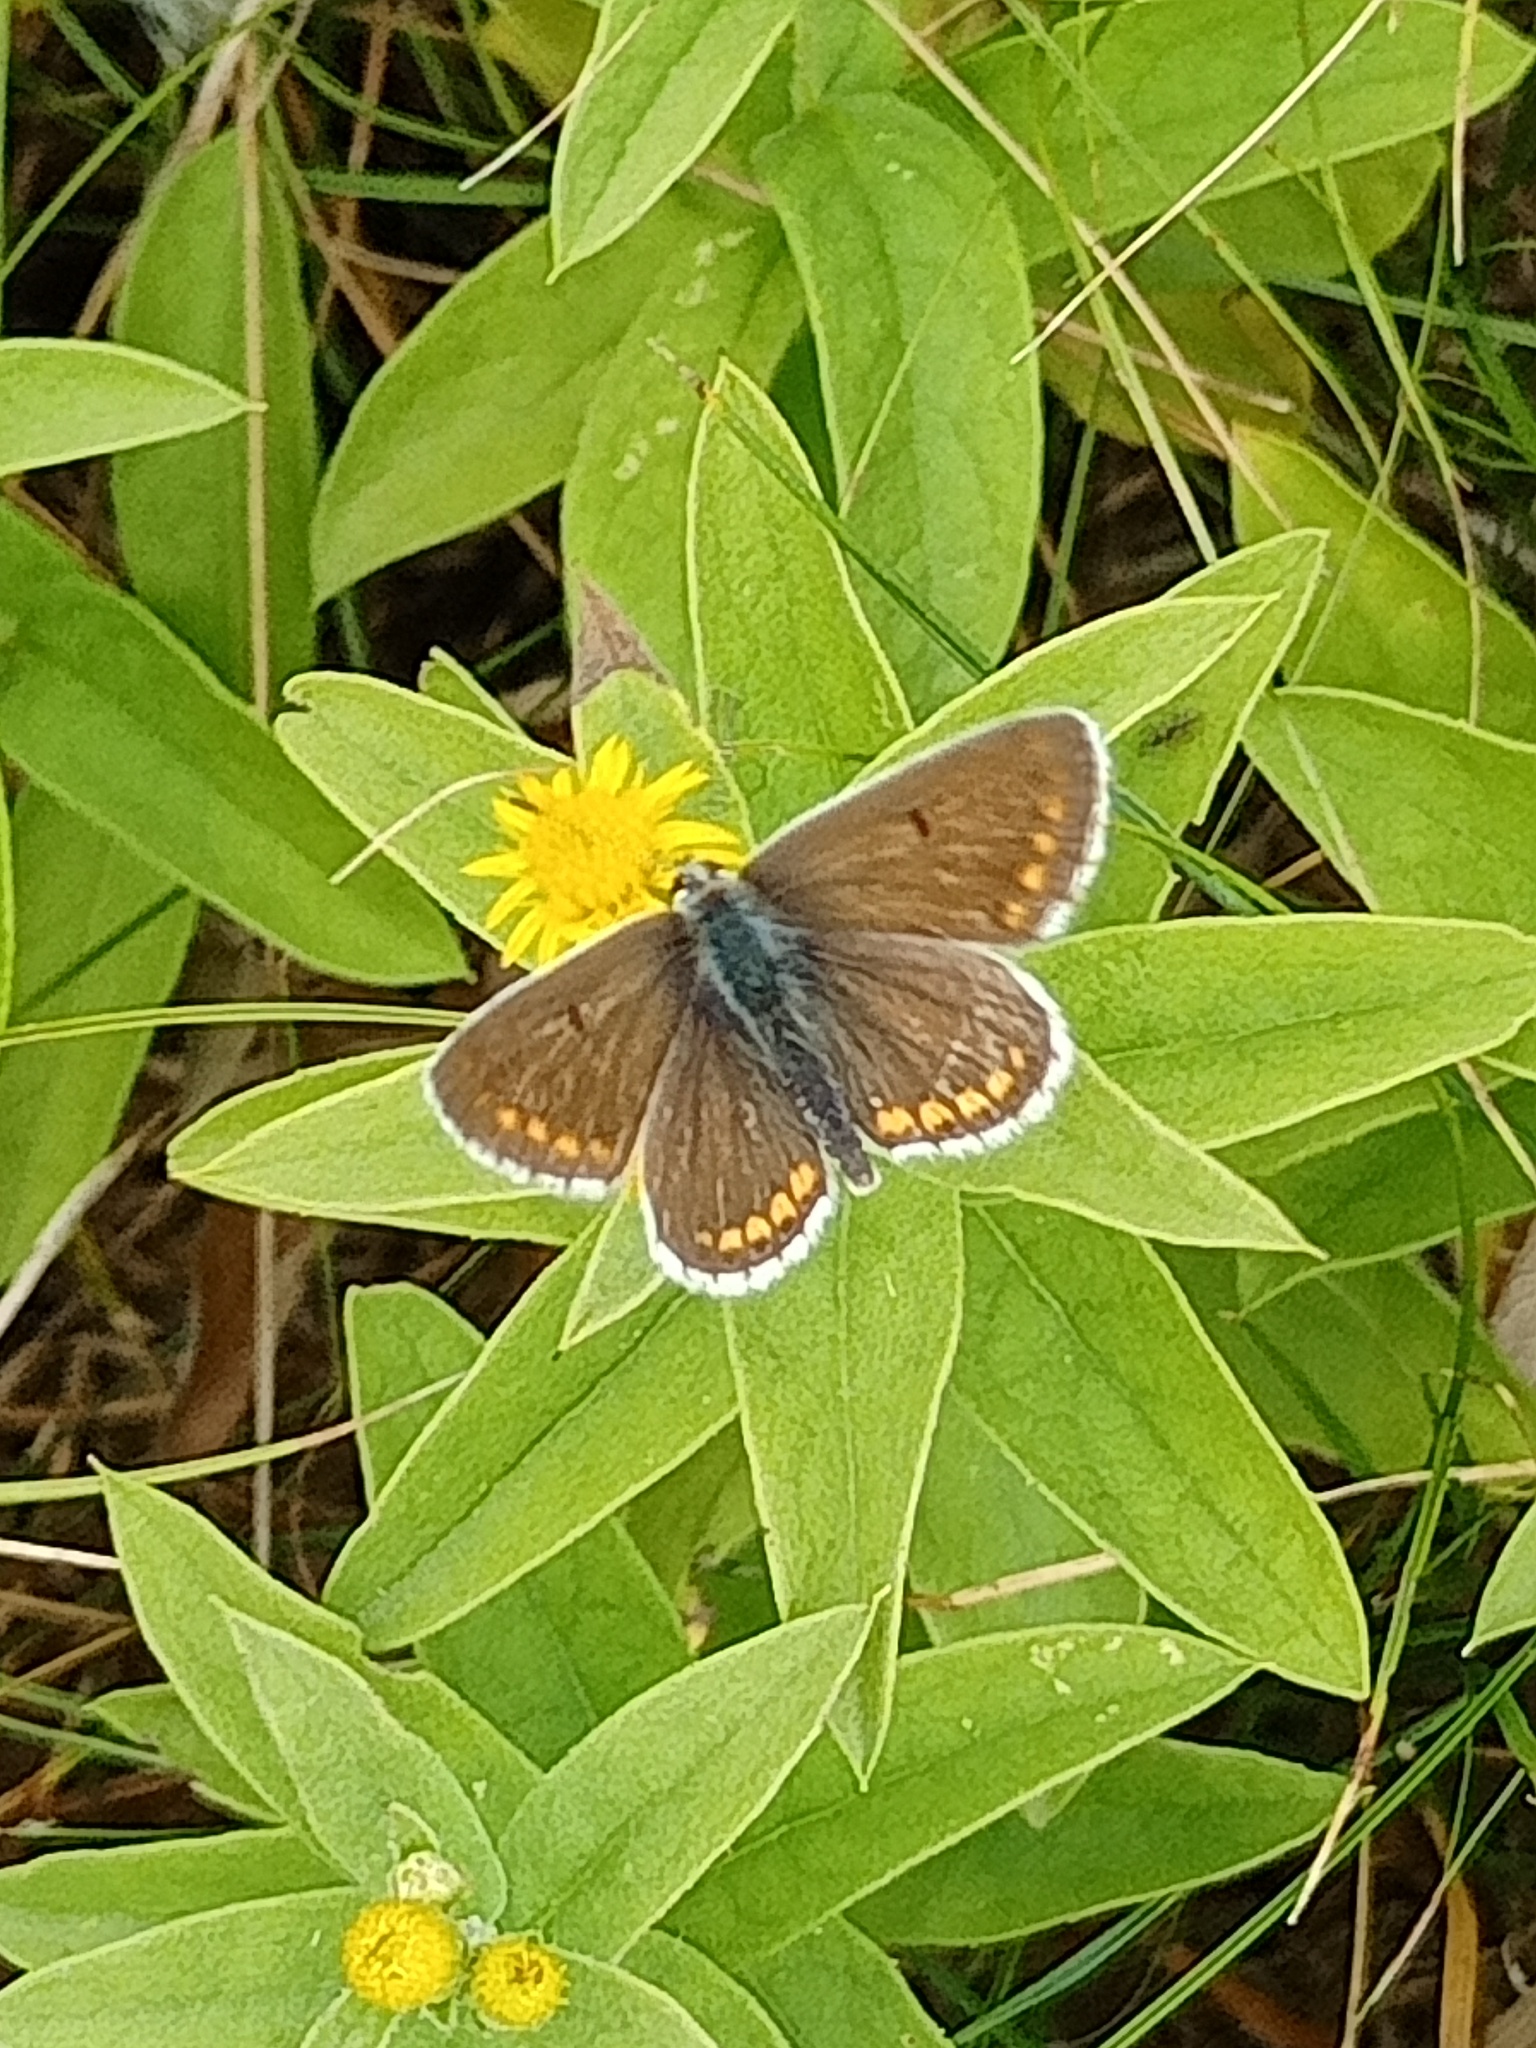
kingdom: Animalia
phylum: Arthropoda
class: Insecta
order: Lepidoptera
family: Lycaenidae
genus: Aricia
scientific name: Aricia agestis
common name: Brown argus
